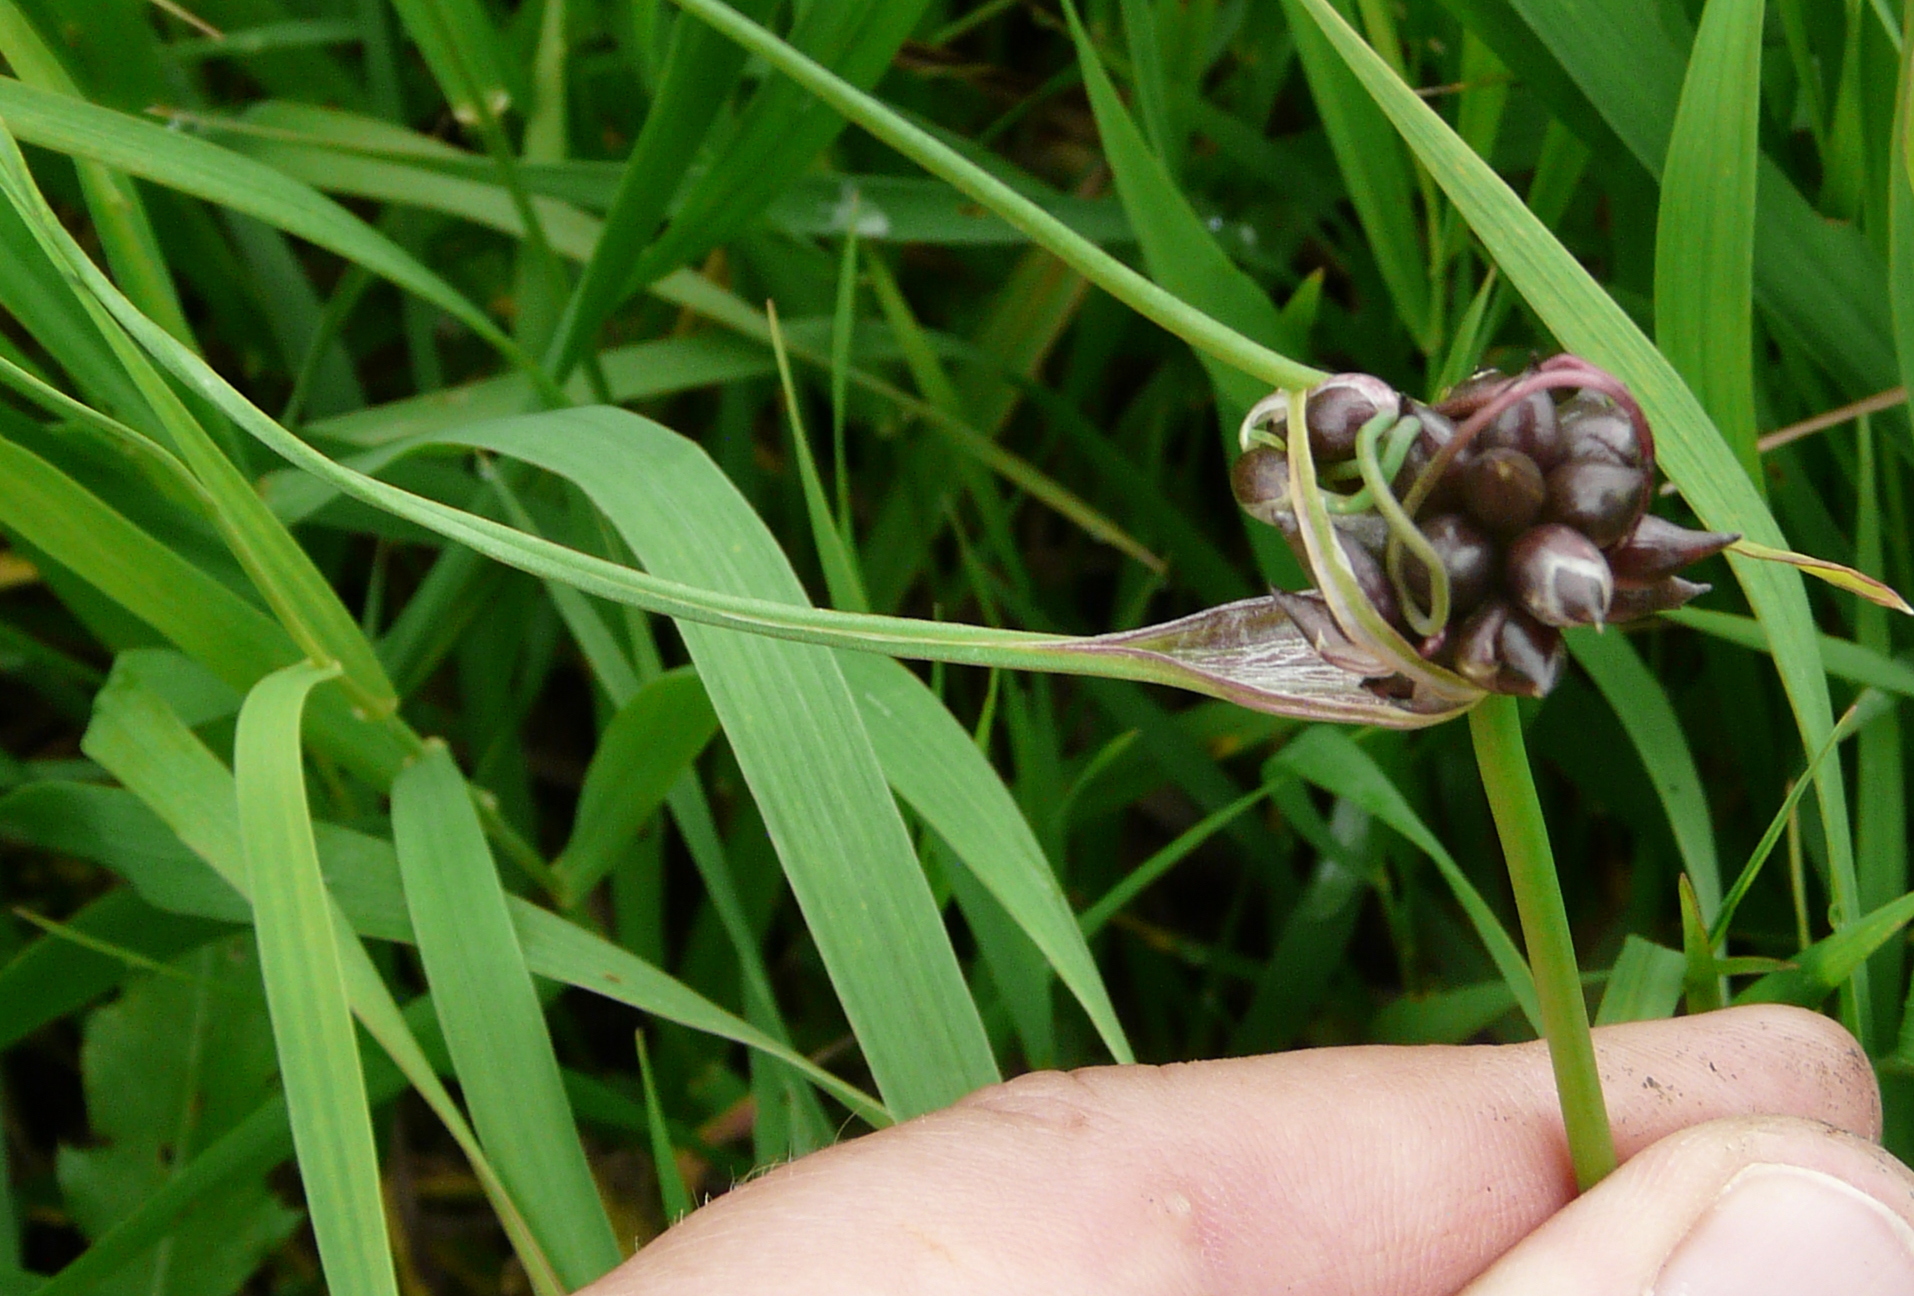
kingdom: Plantae
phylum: Tracheophyta
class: Liliopsida
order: Asparagales
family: Amaryllidaceae
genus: Allium
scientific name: Allium oleraceum
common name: Field garlic
